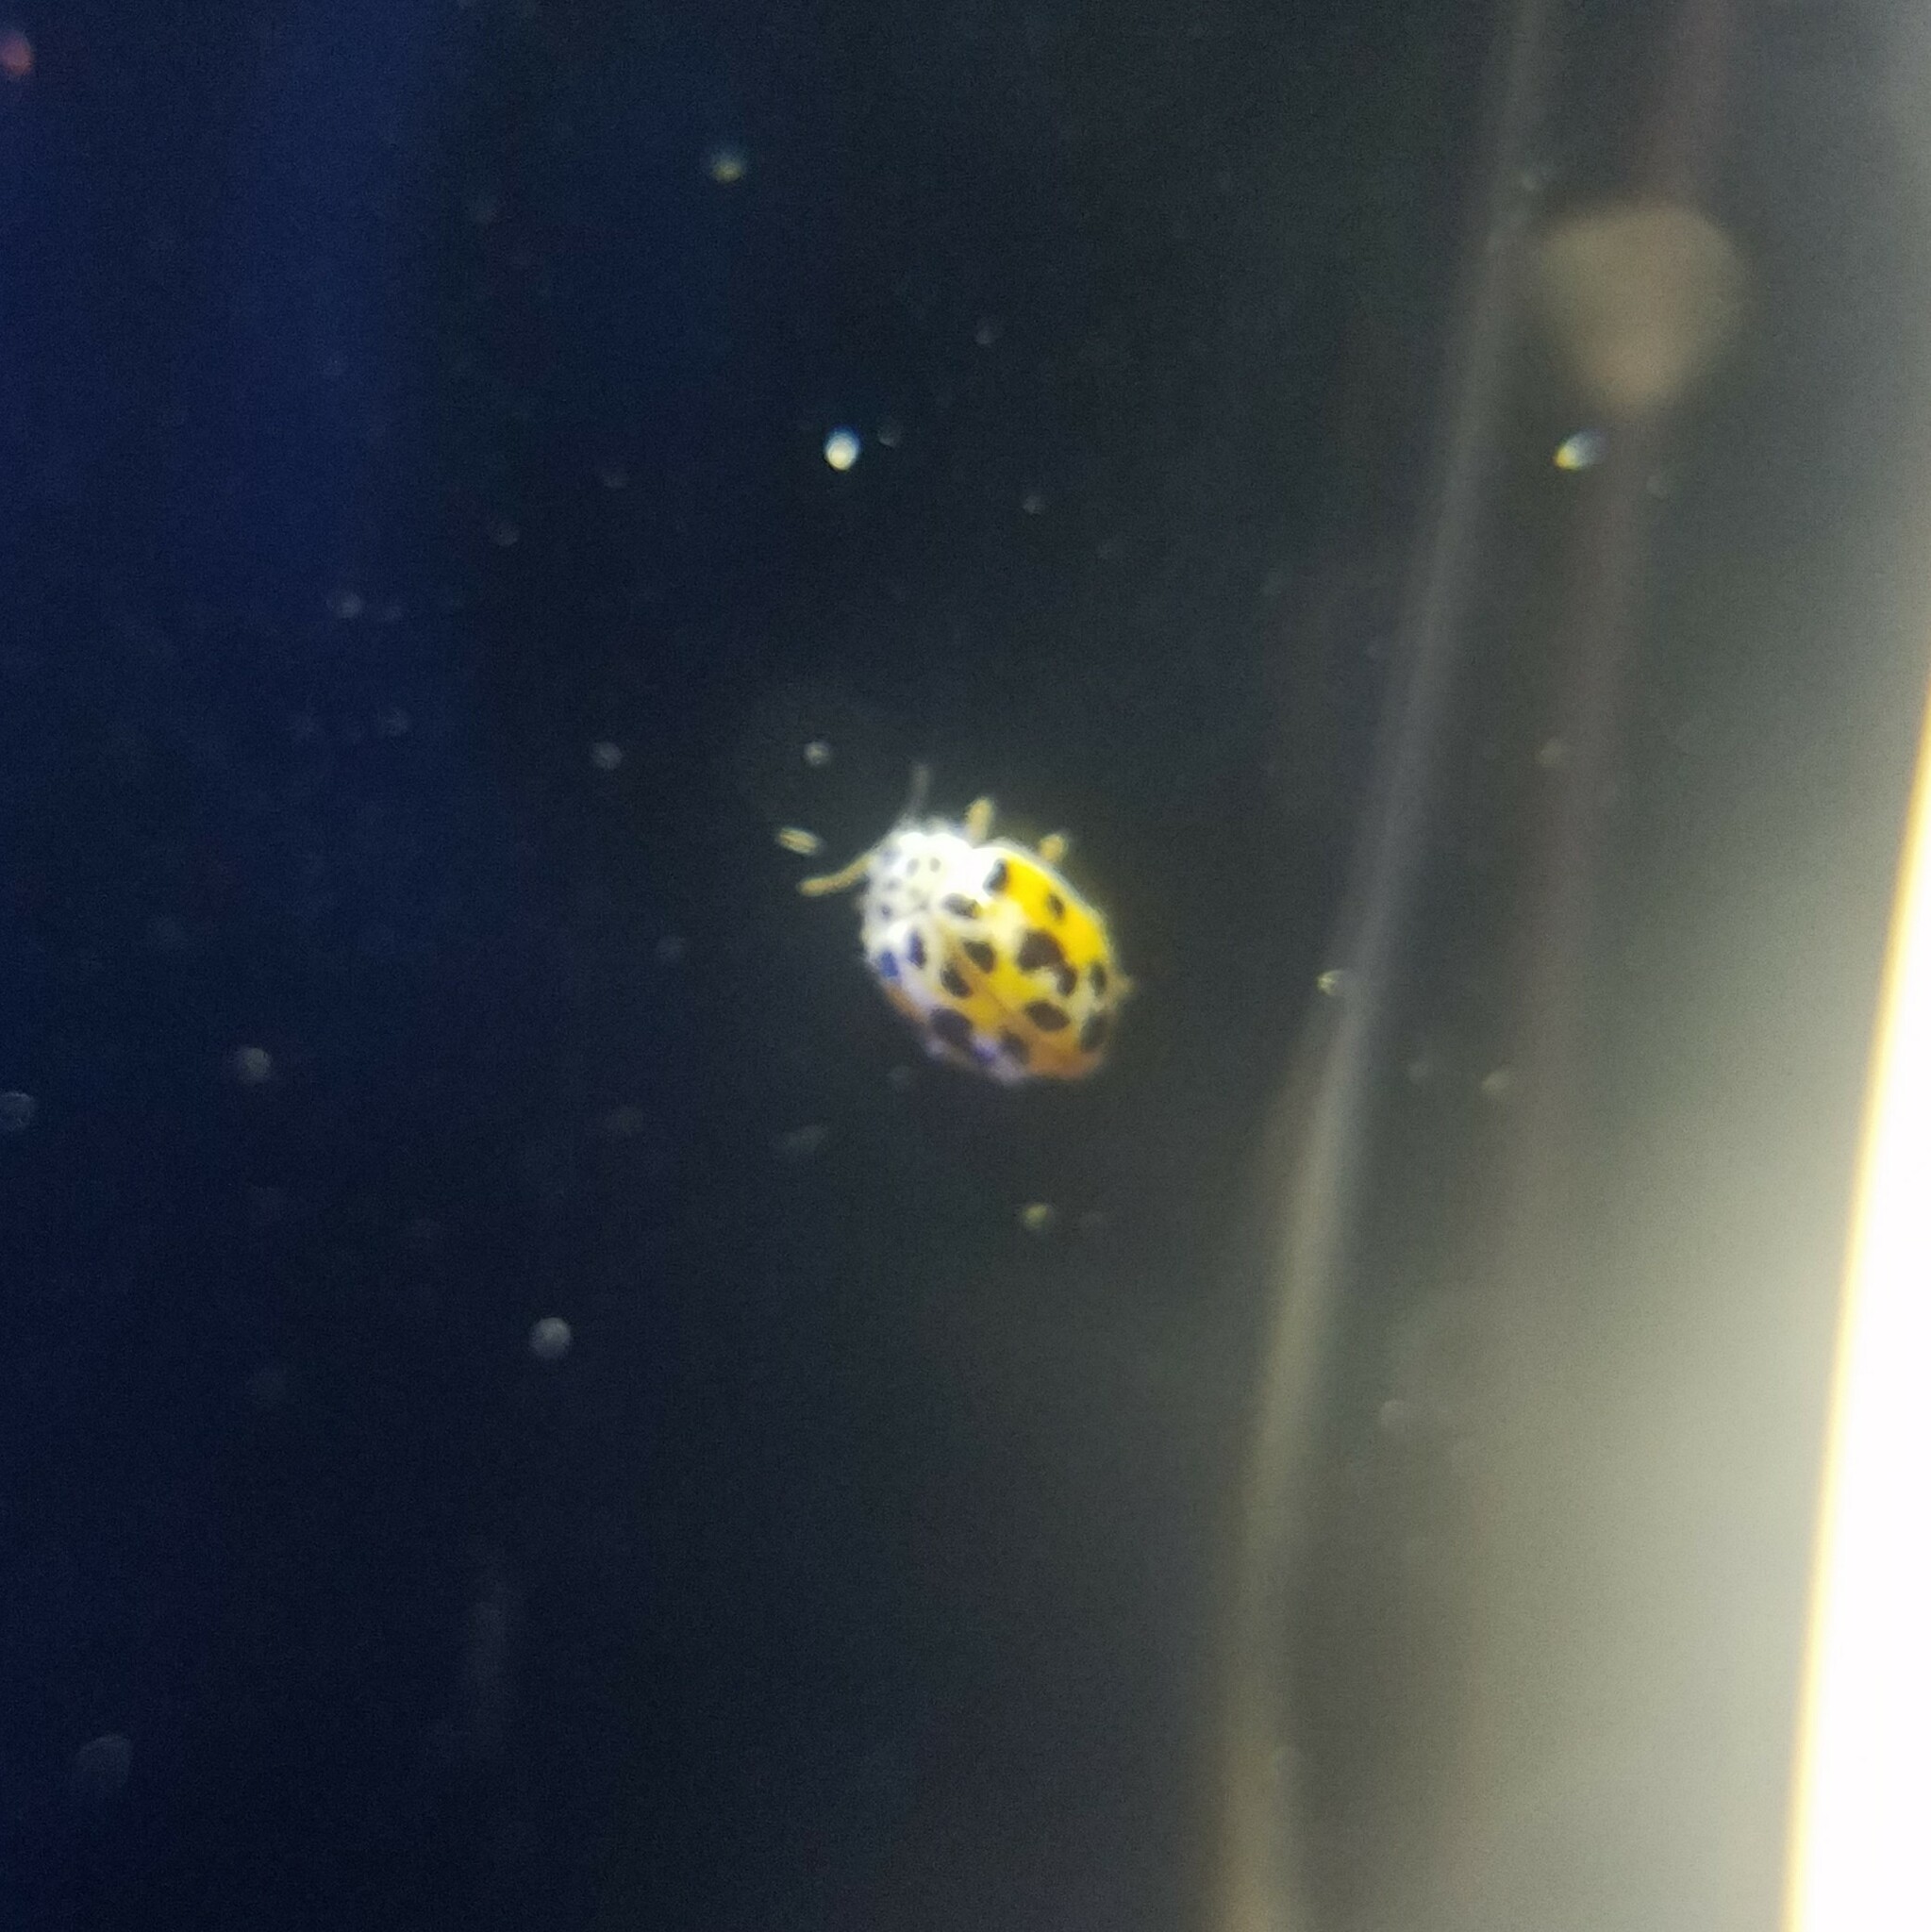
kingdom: Animalia
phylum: Arthropoda
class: Insecta
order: Coleoptera
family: Coccinellidae
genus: Psyllobora
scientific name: Psyllobora vigintimaculata
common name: Ladybird beetle
